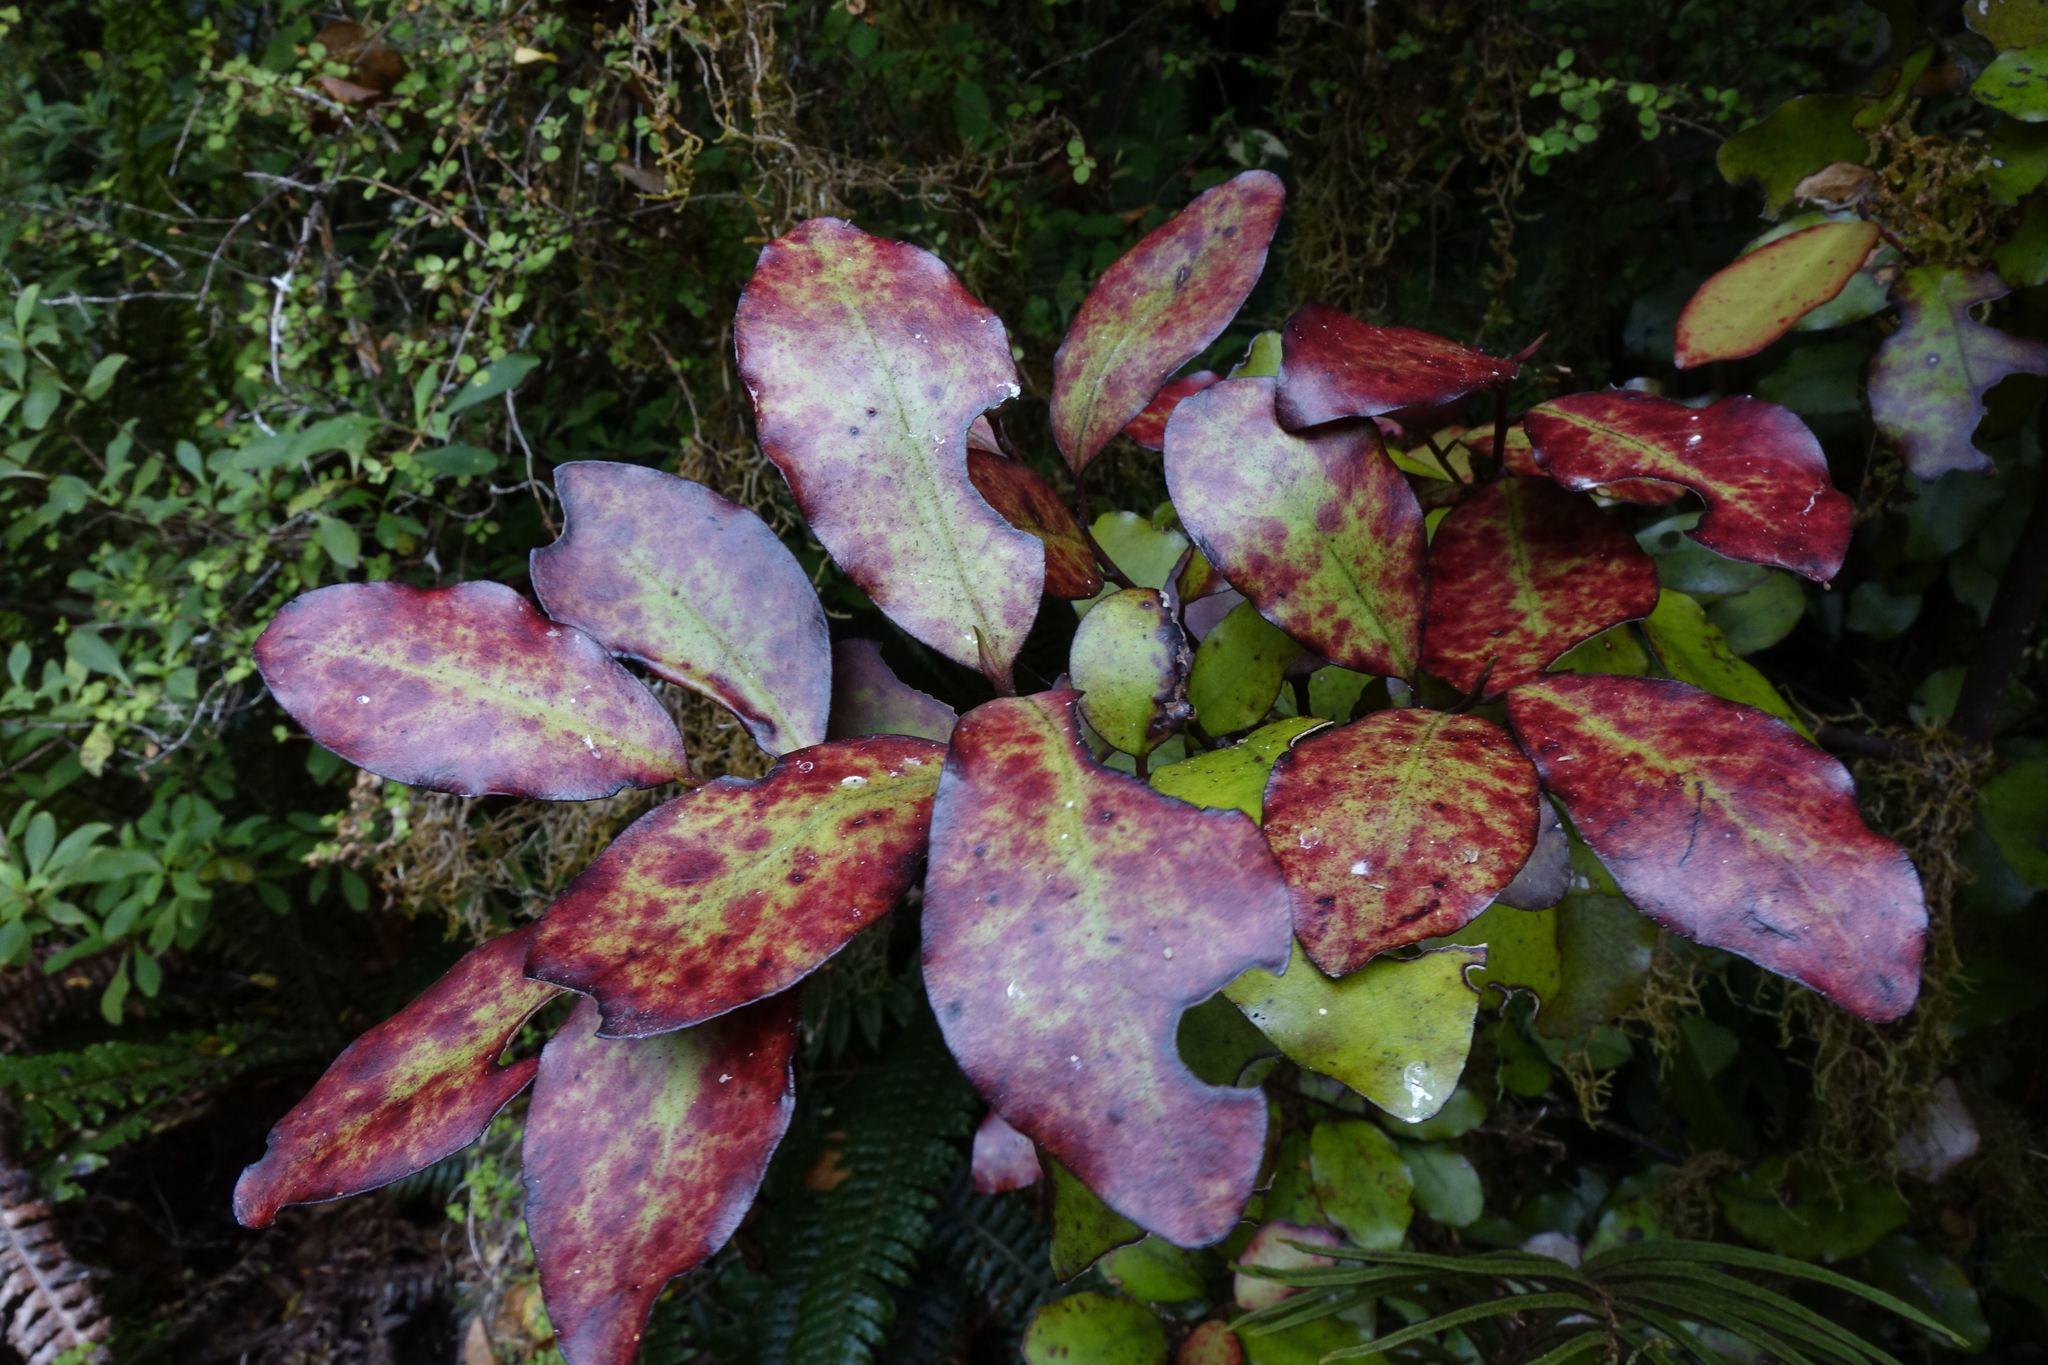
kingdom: Plantae
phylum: Tracheophyta
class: Magnoliopsida
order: Canellales
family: Winteraceae
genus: Pseudowintera
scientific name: Pseudowintera colorata
